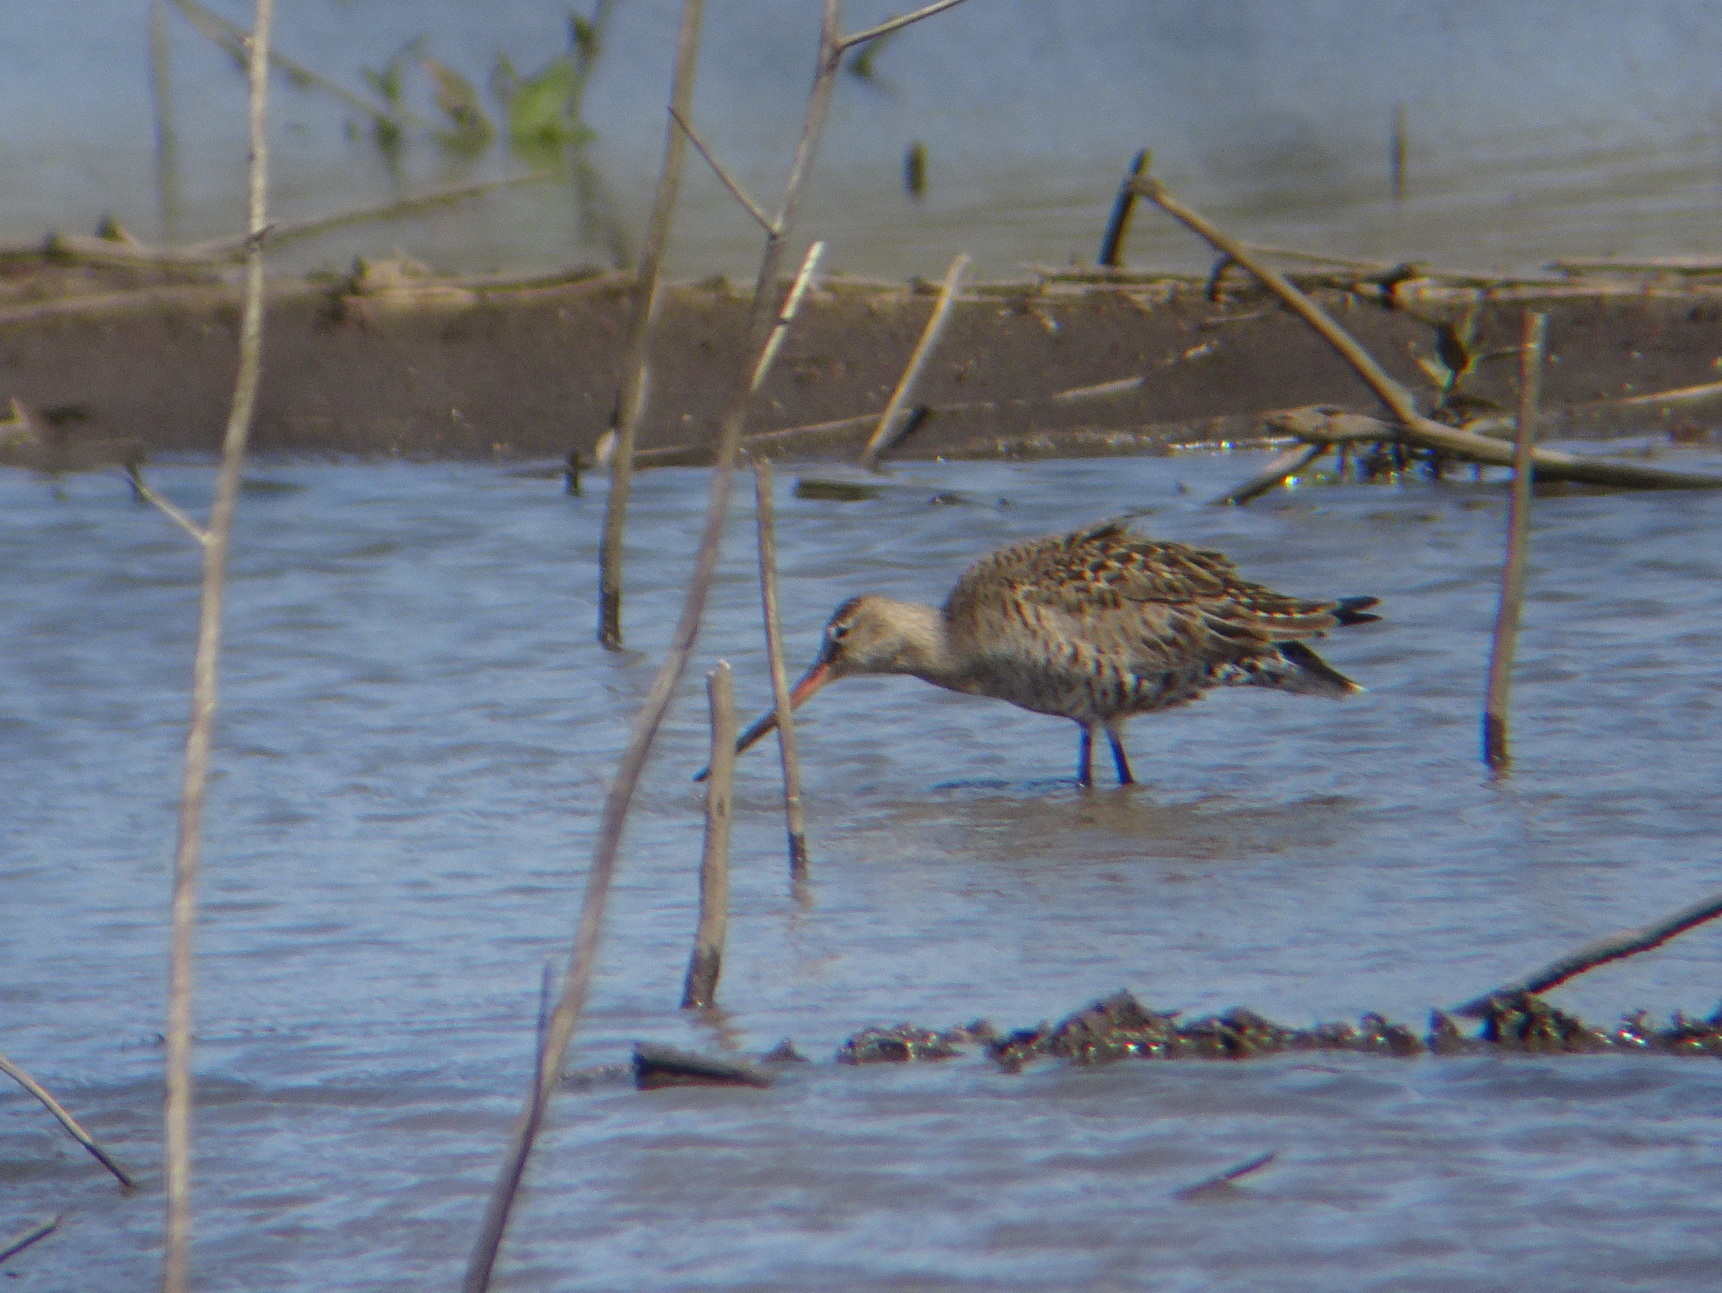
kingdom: Animalia
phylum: Chordata
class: Aves
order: Charadriiformes
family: Scolopacidae
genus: Limosa
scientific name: Limosa haemastica
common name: Hudsonian godwit
